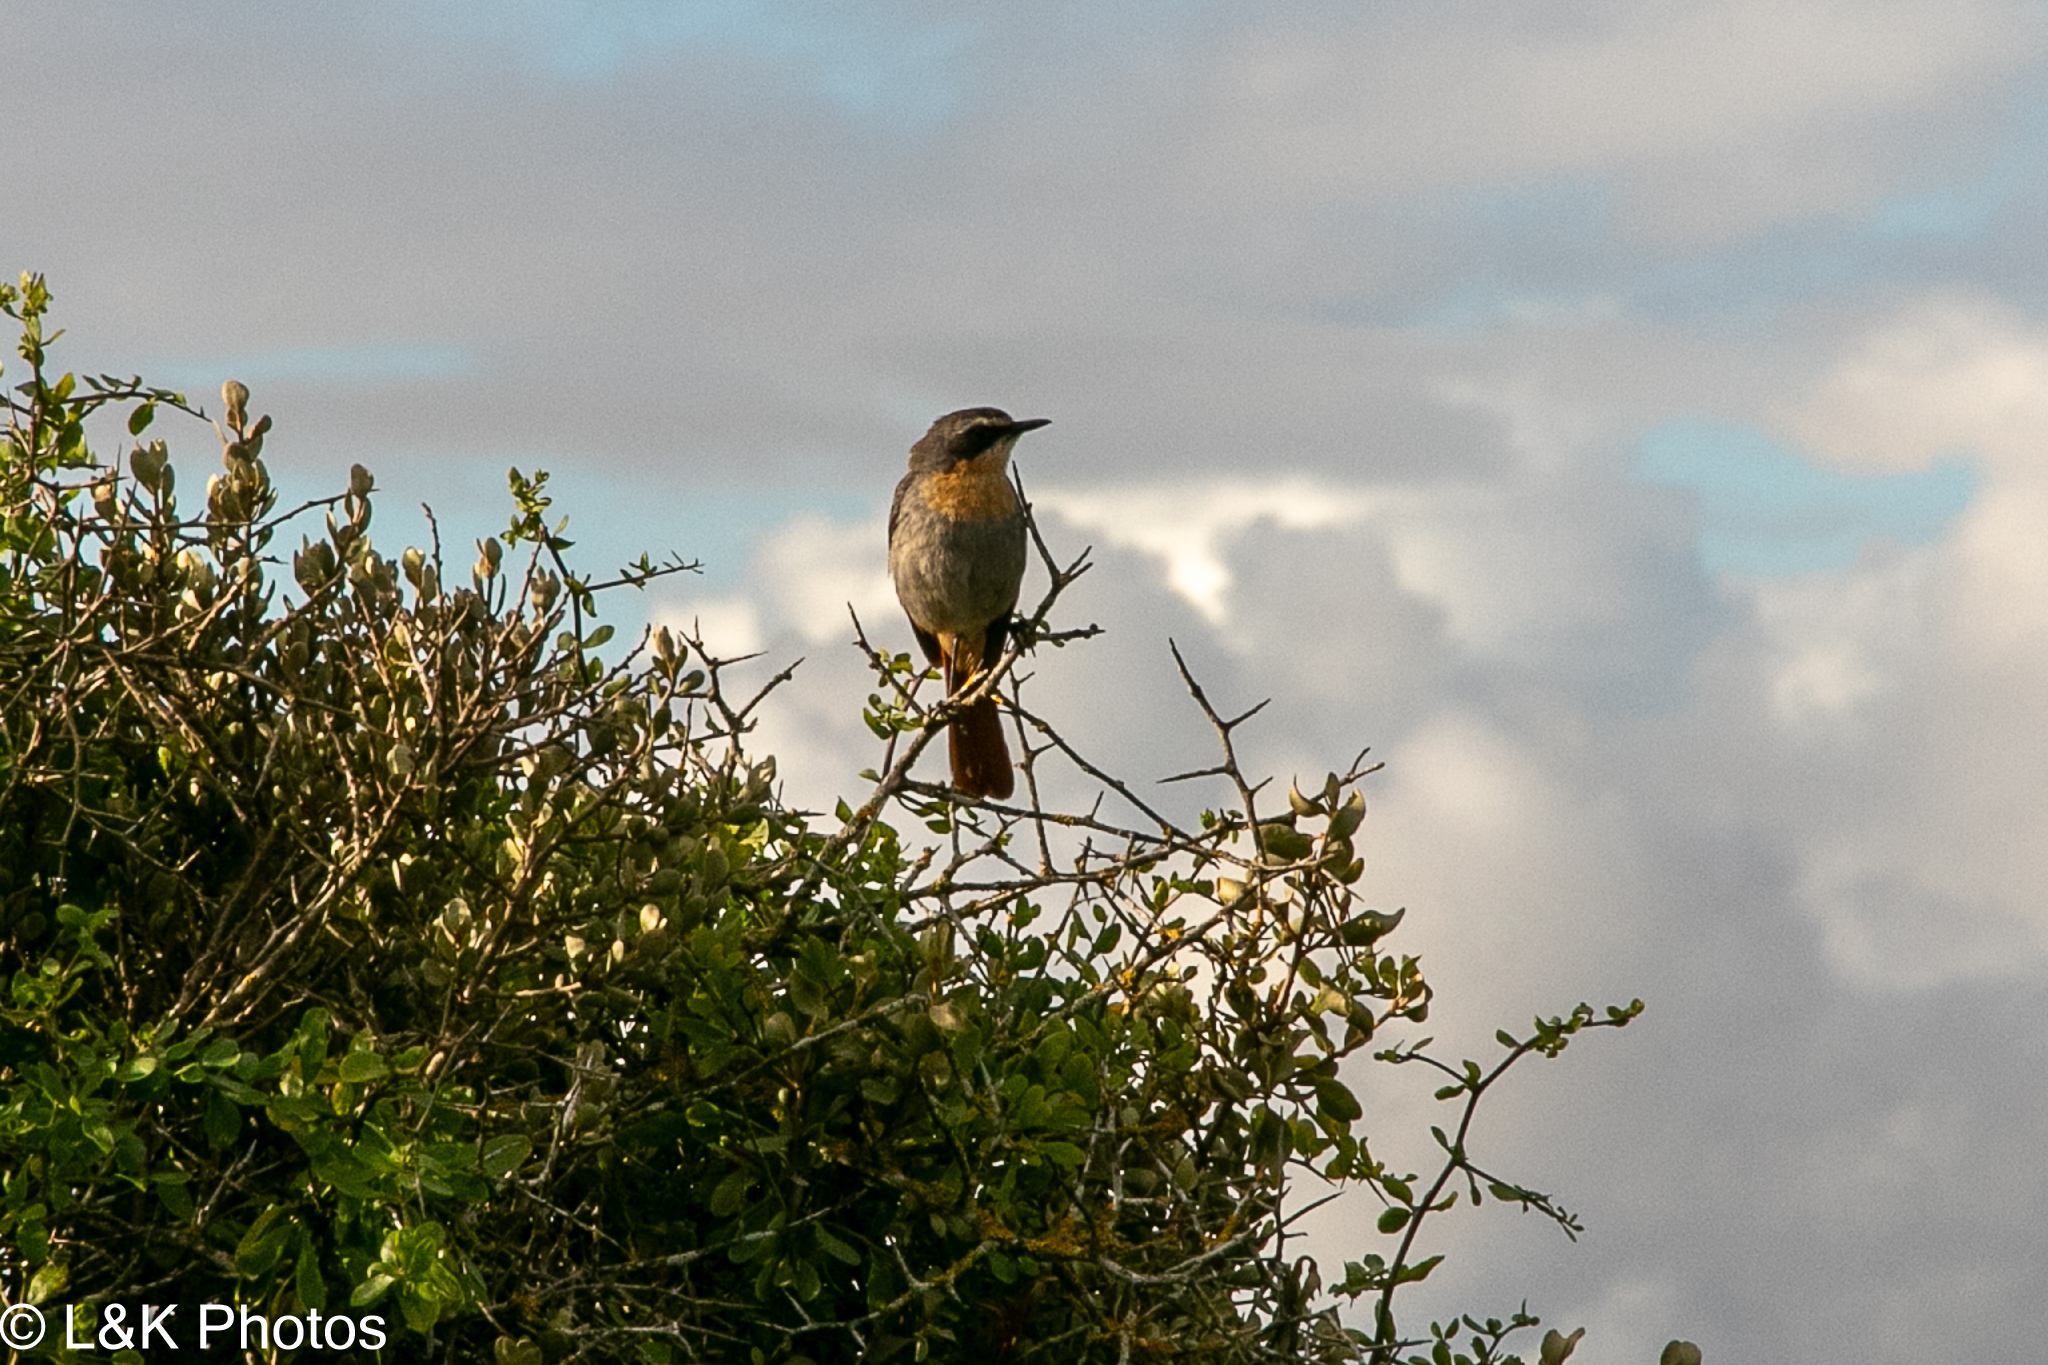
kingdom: Animalia
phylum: Chordata
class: Aves
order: Passeriformes
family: Muscicapidae
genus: Cossypha
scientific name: Cossypha caffra
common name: Cape robin-chat
